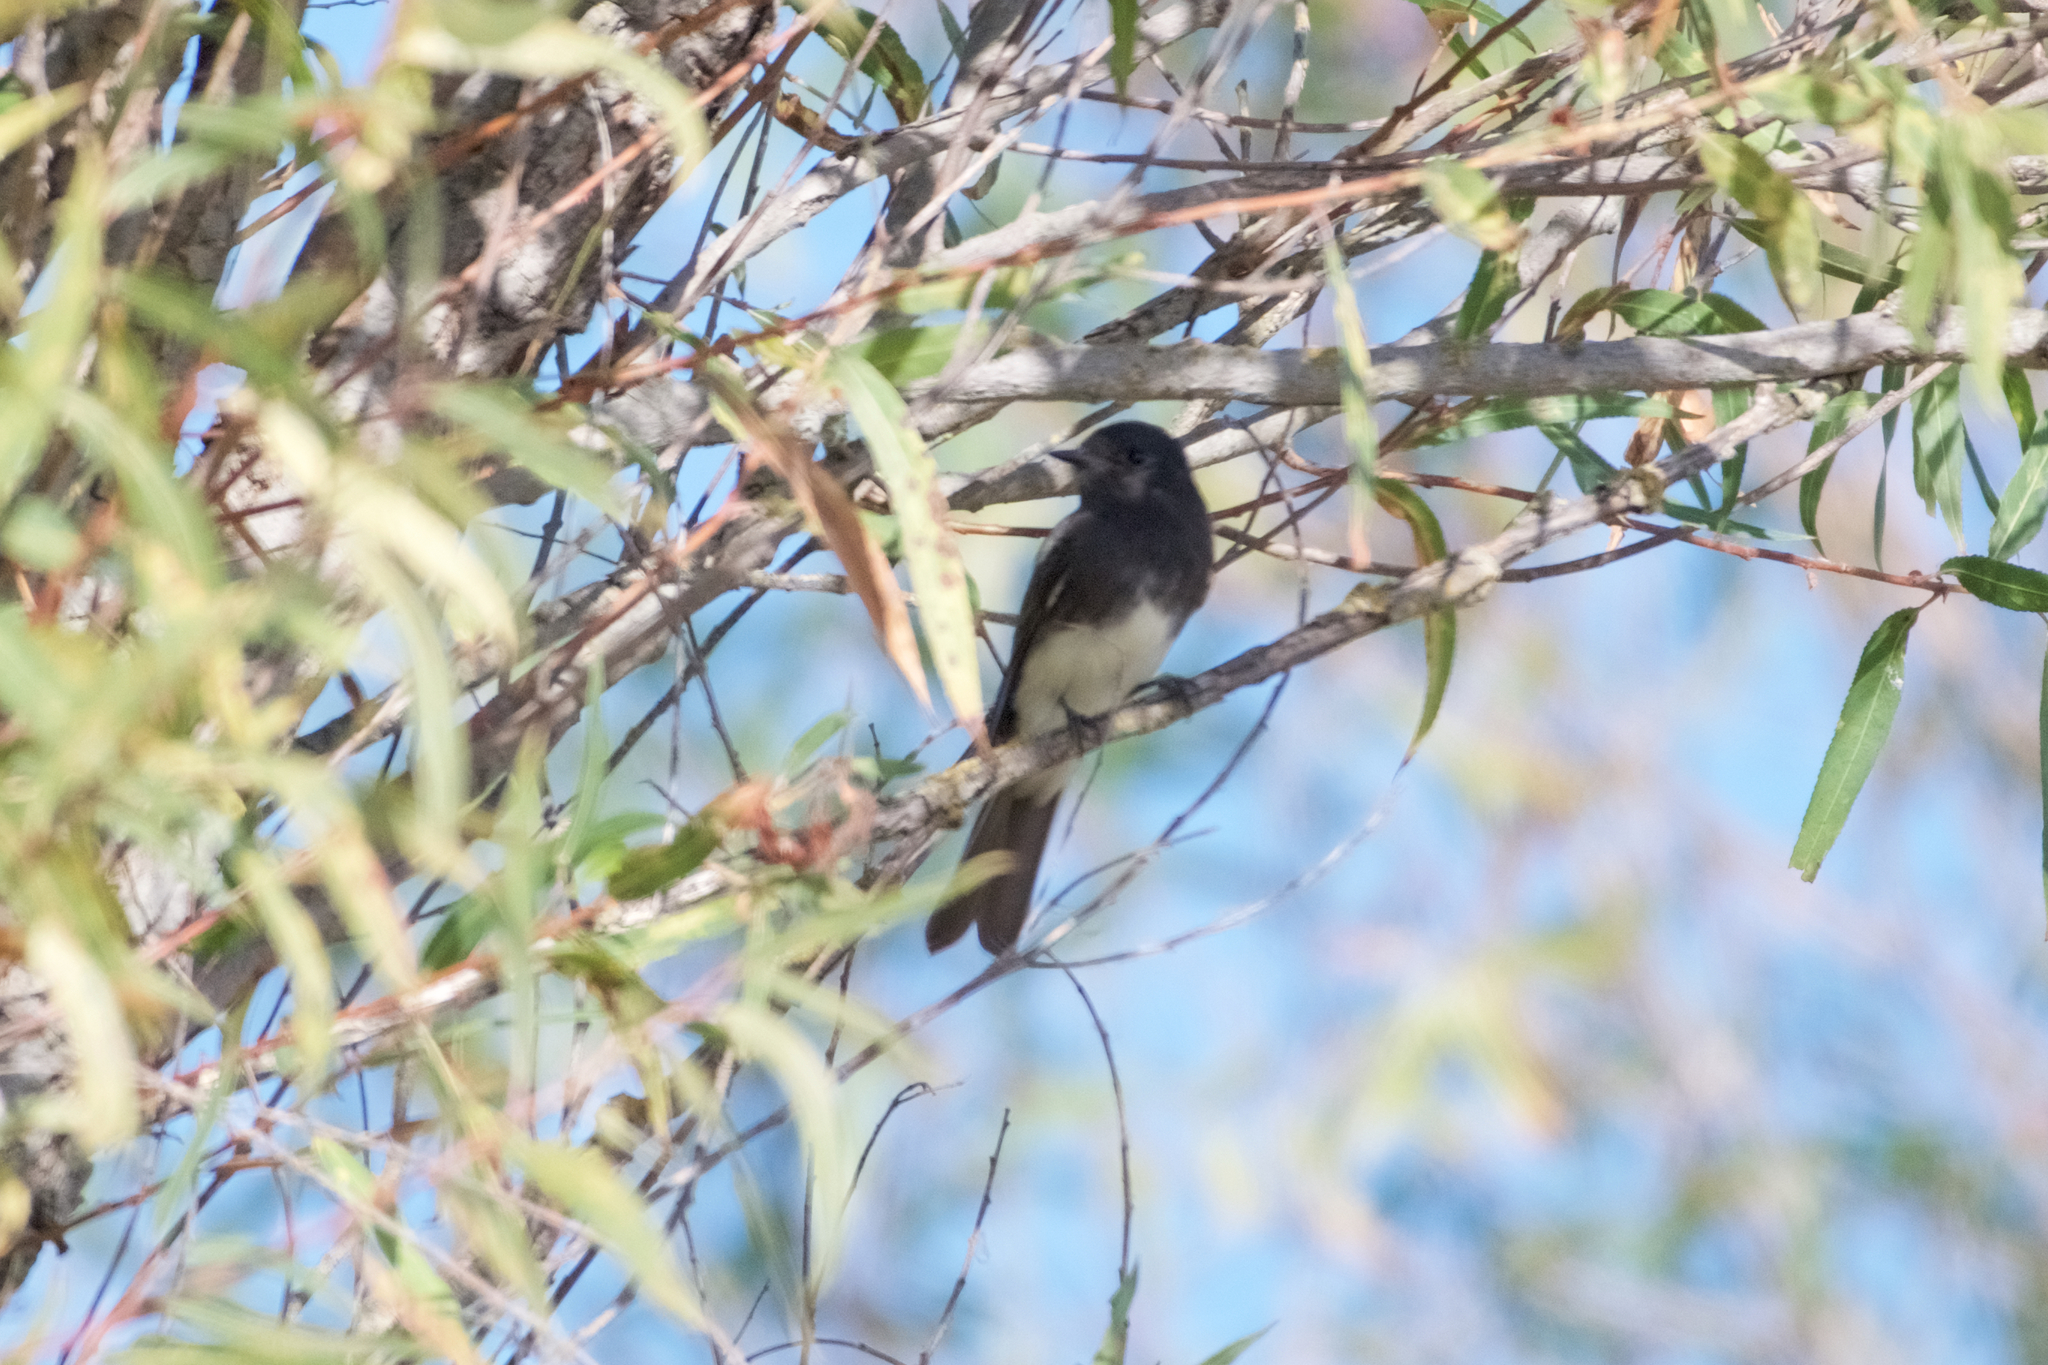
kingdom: Animalia
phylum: Chordata
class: Aves
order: Passeriformes
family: Tyrannidae
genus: Sayornis
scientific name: Sayornis nigricans
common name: Black phoebe
